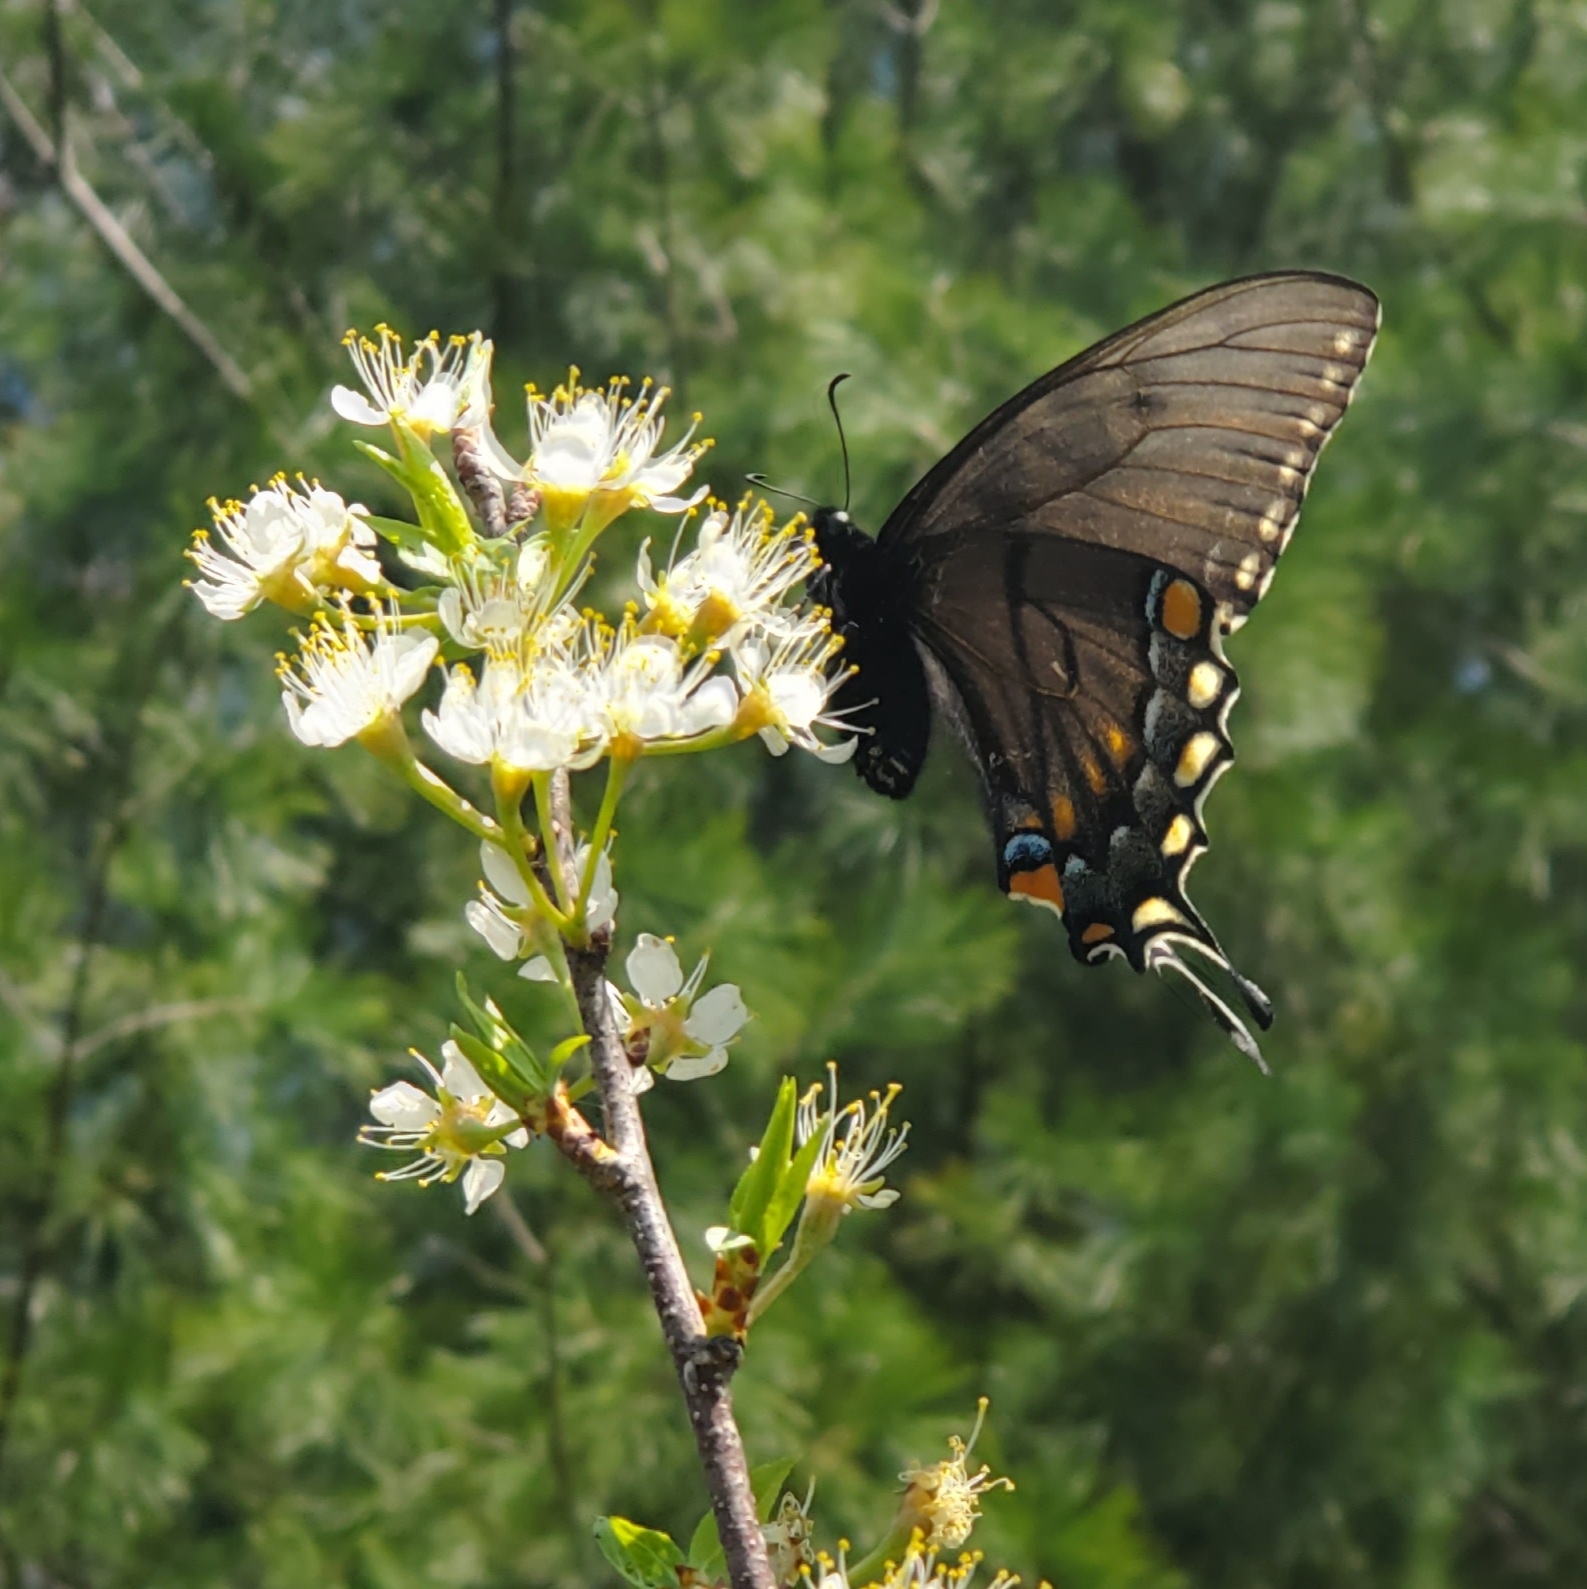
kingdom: Animalia
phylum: Arthropoda
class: Insecta
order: Lepidoptera
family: Papilionidae
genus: Papilio
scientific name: Papilio glaucus
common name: Tiger swallowtail
